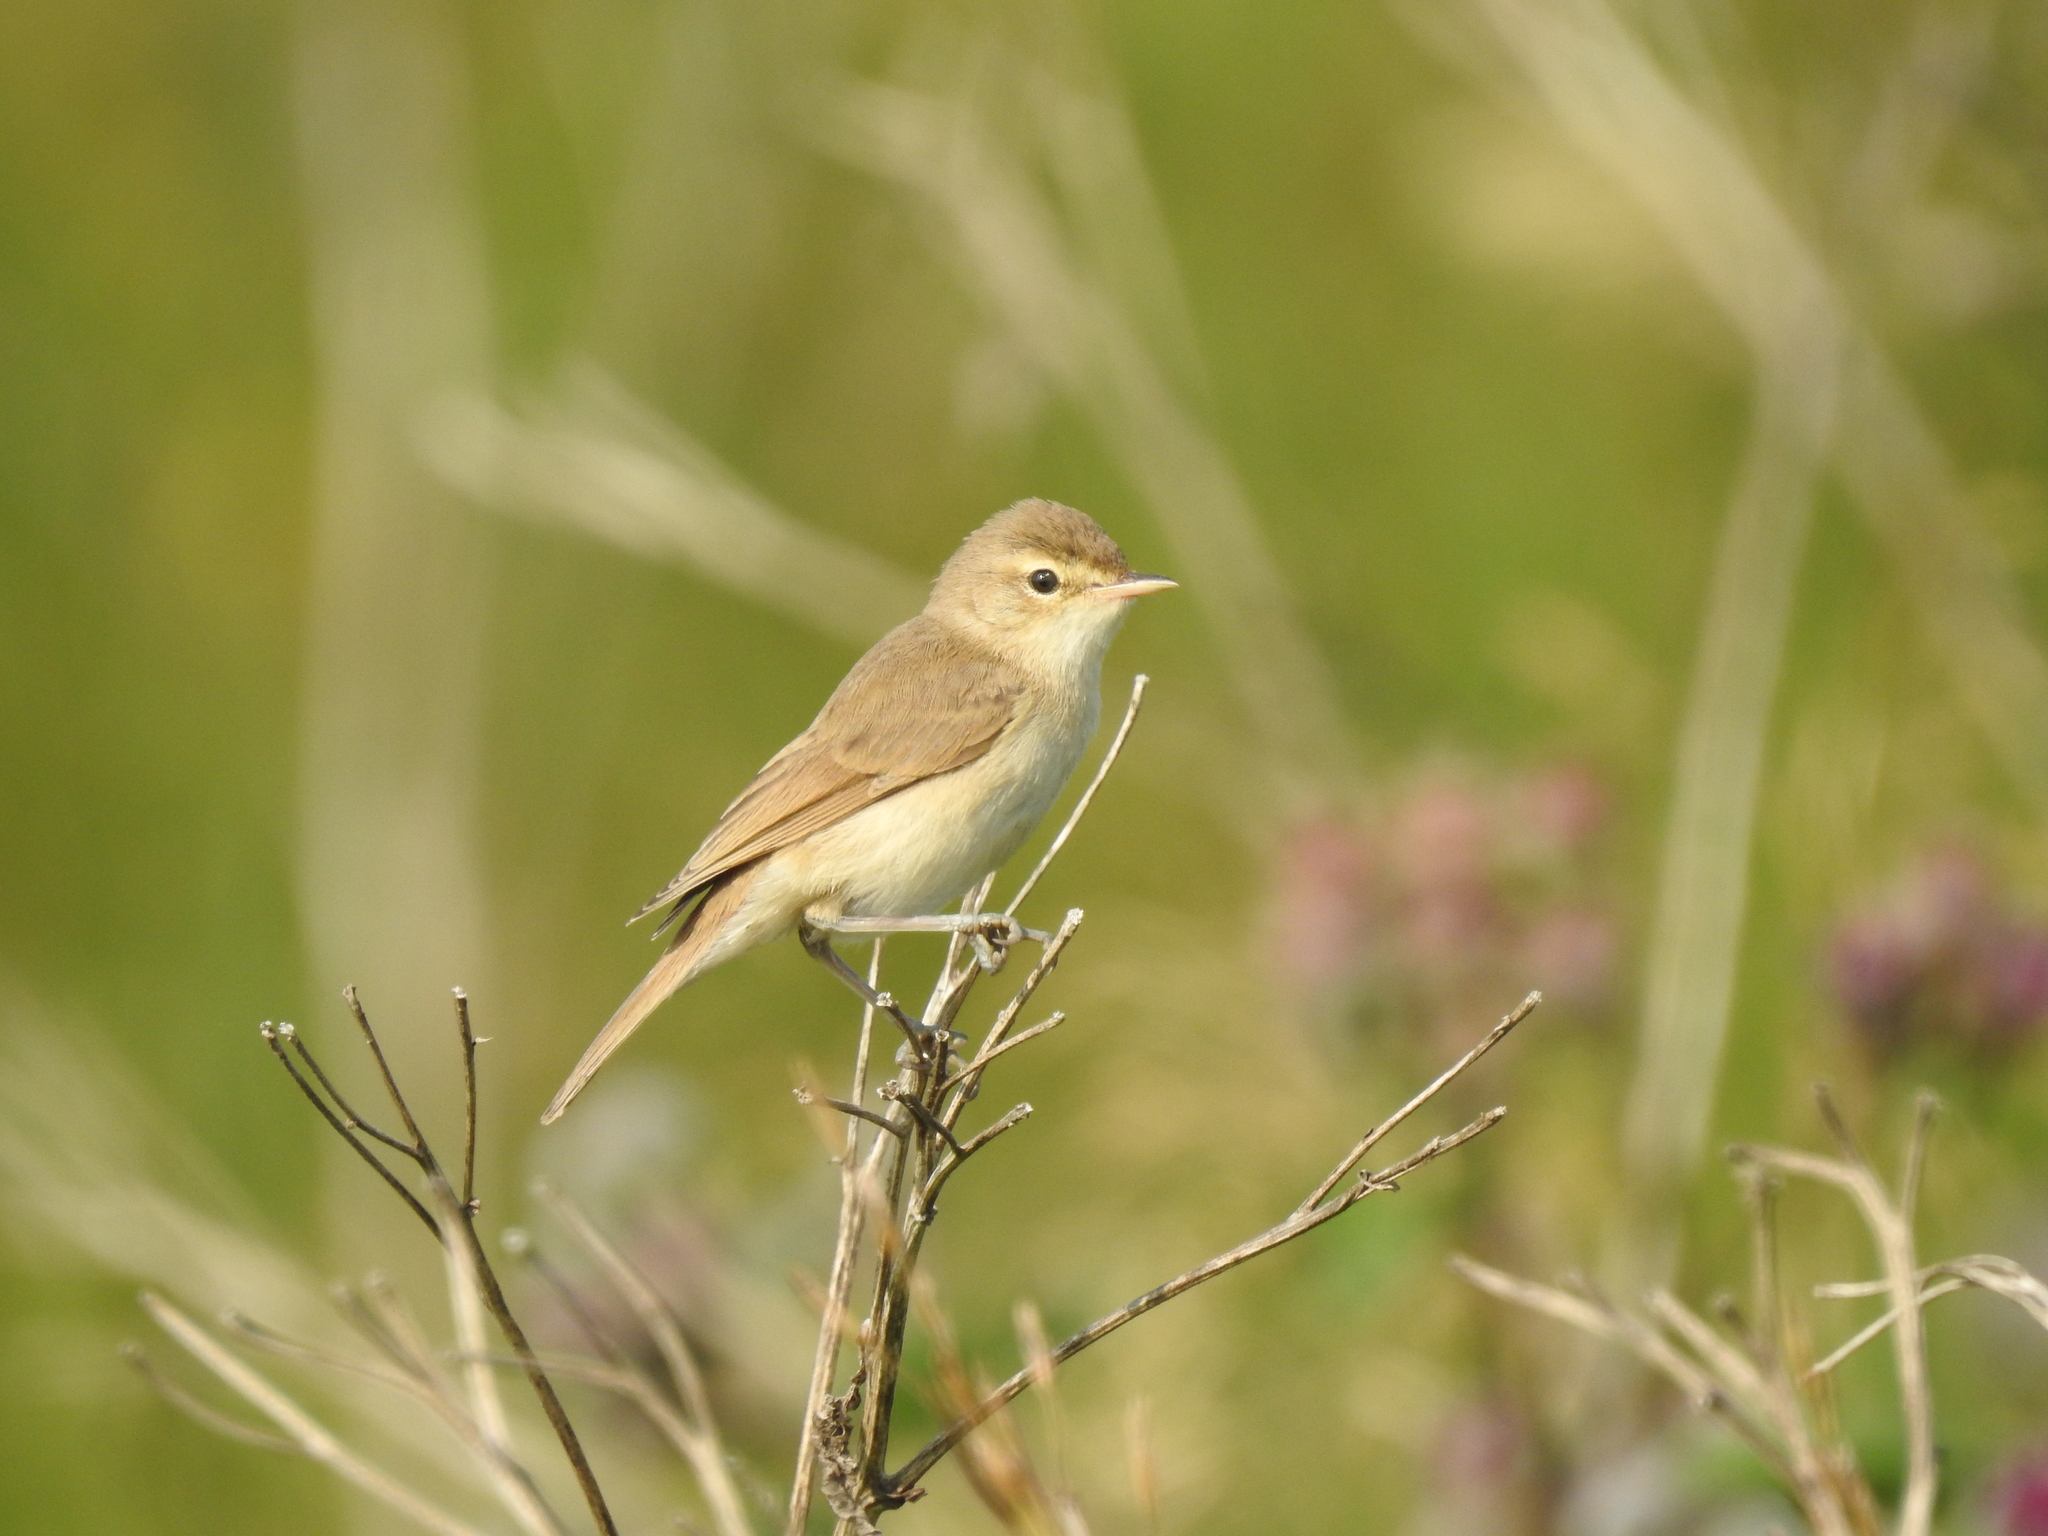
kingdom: Animalia
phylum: Chordata
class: Aves
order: Passeriformes
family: Acrocephalidae
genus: Iduna
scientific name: Iduna caligata
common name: Booted warbler
